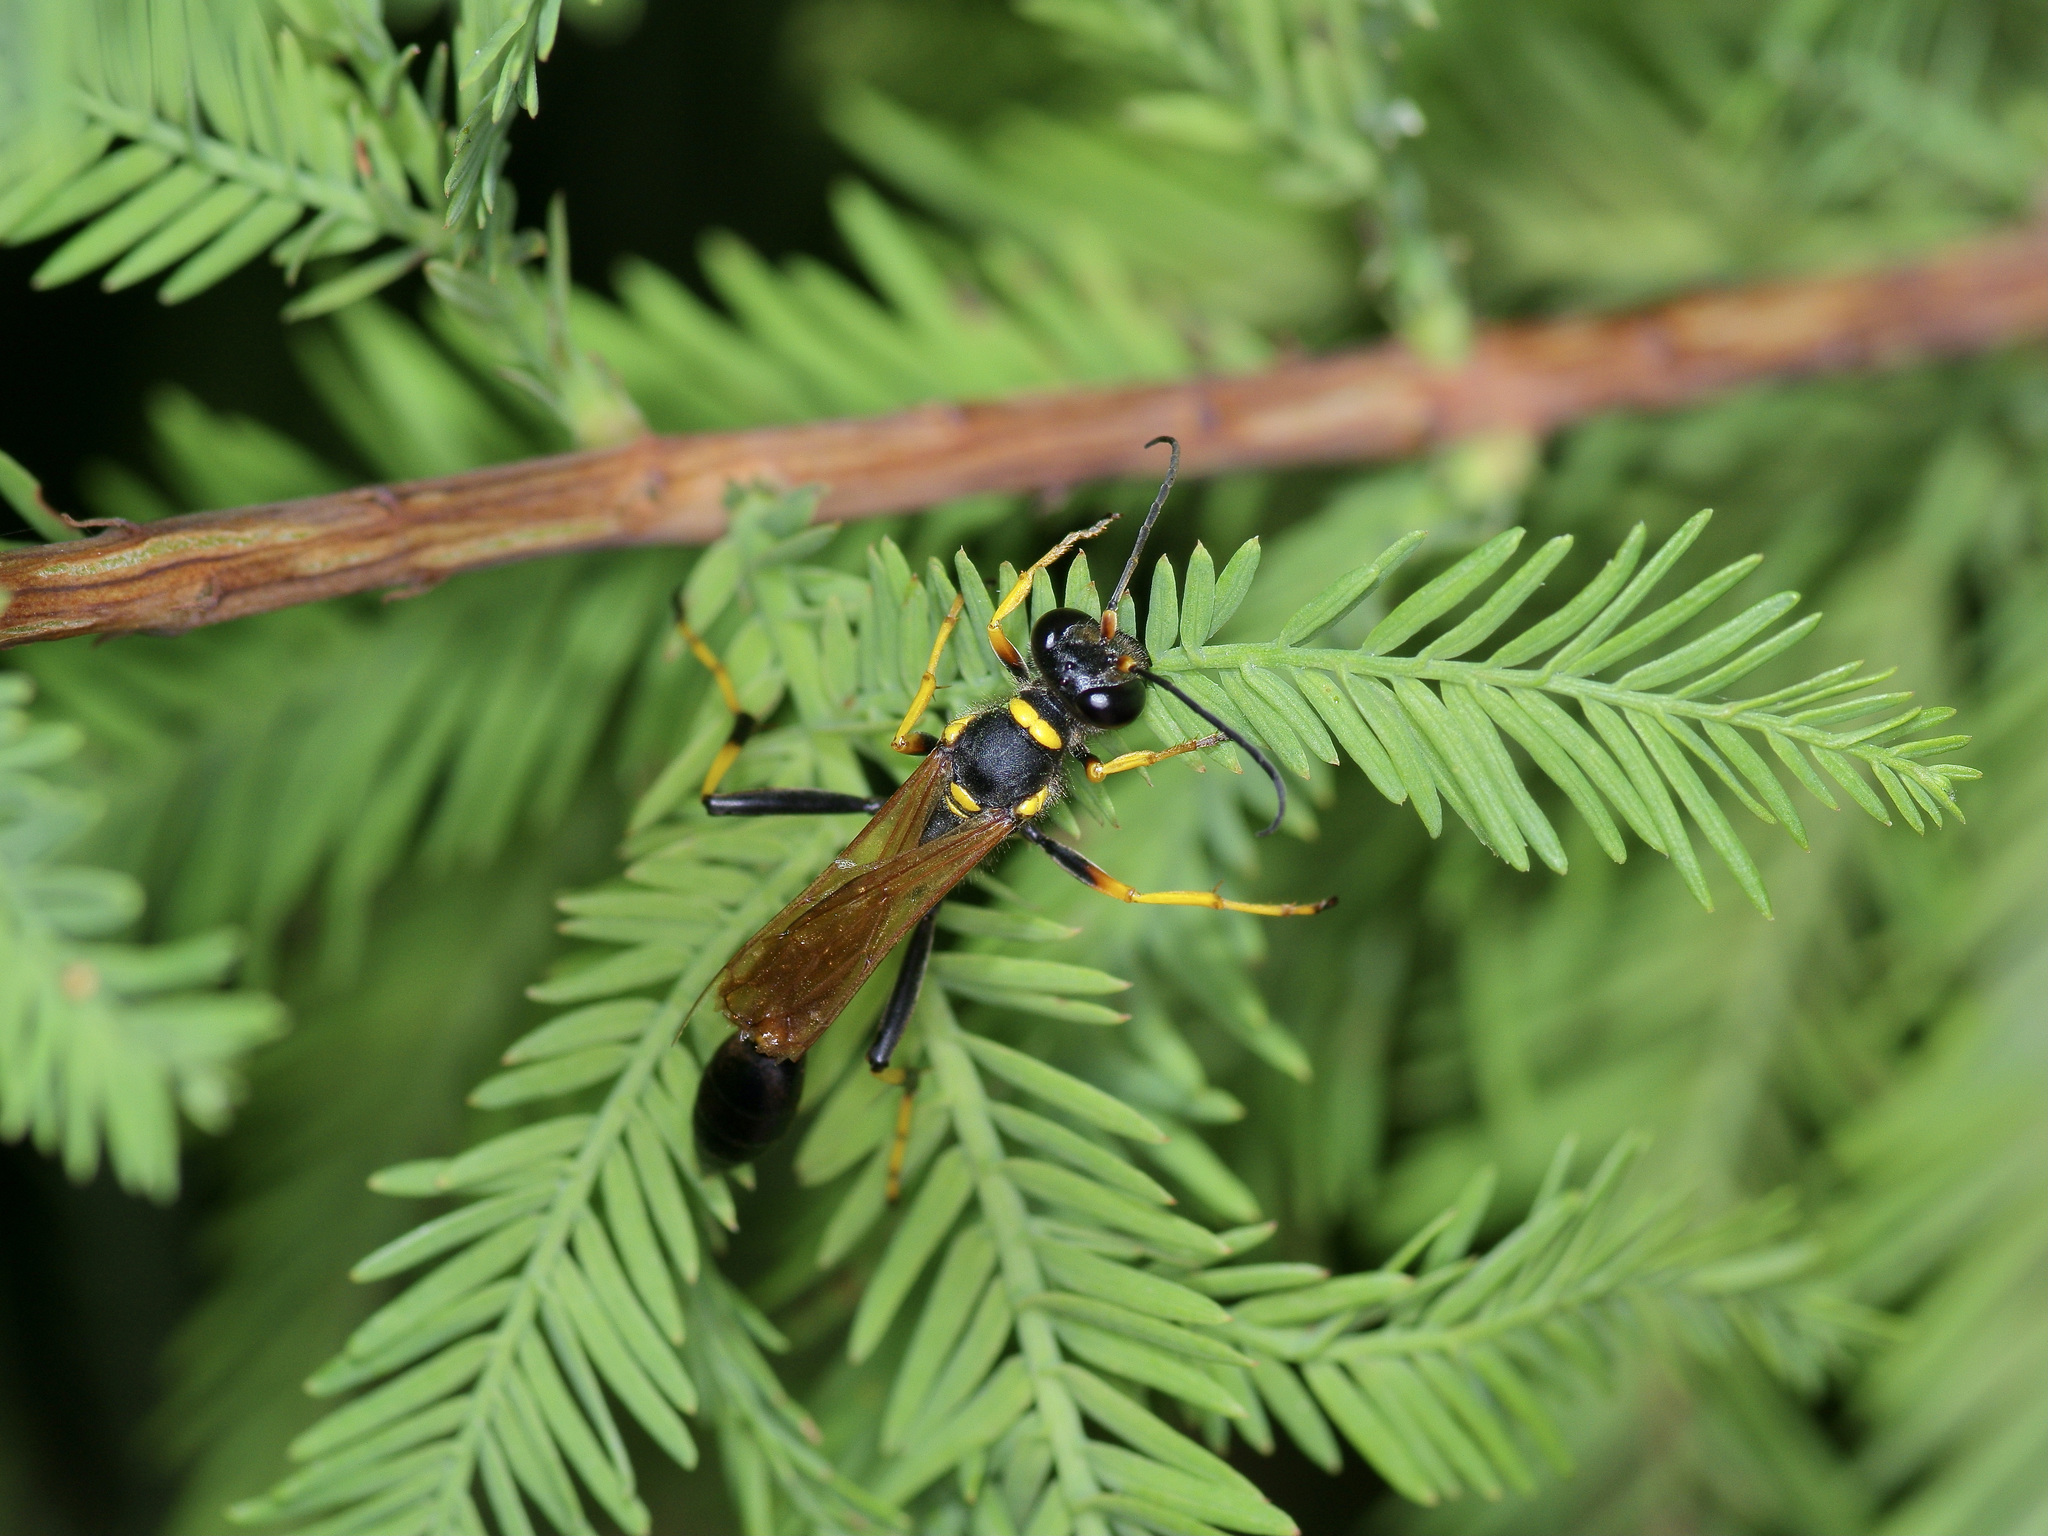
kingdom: Animalia
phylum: Arthropoda
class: Insecta
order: Hymenoptera
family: Sphecidae
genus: Sceliphron
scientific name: Sceliphron caementarium
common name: Mud dauber
